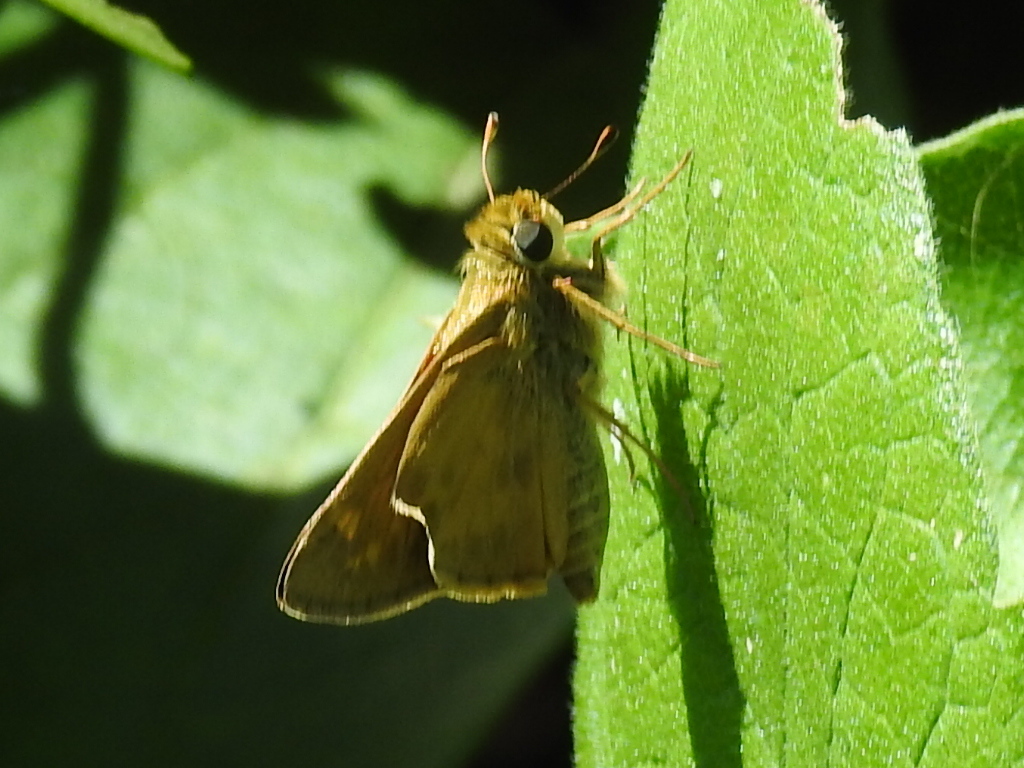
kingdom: Animalia
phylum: Arthropoda
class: Insecta
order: Lepidoptera
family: Hesperiidae
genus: Atalopedes
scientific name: Atalopedes
